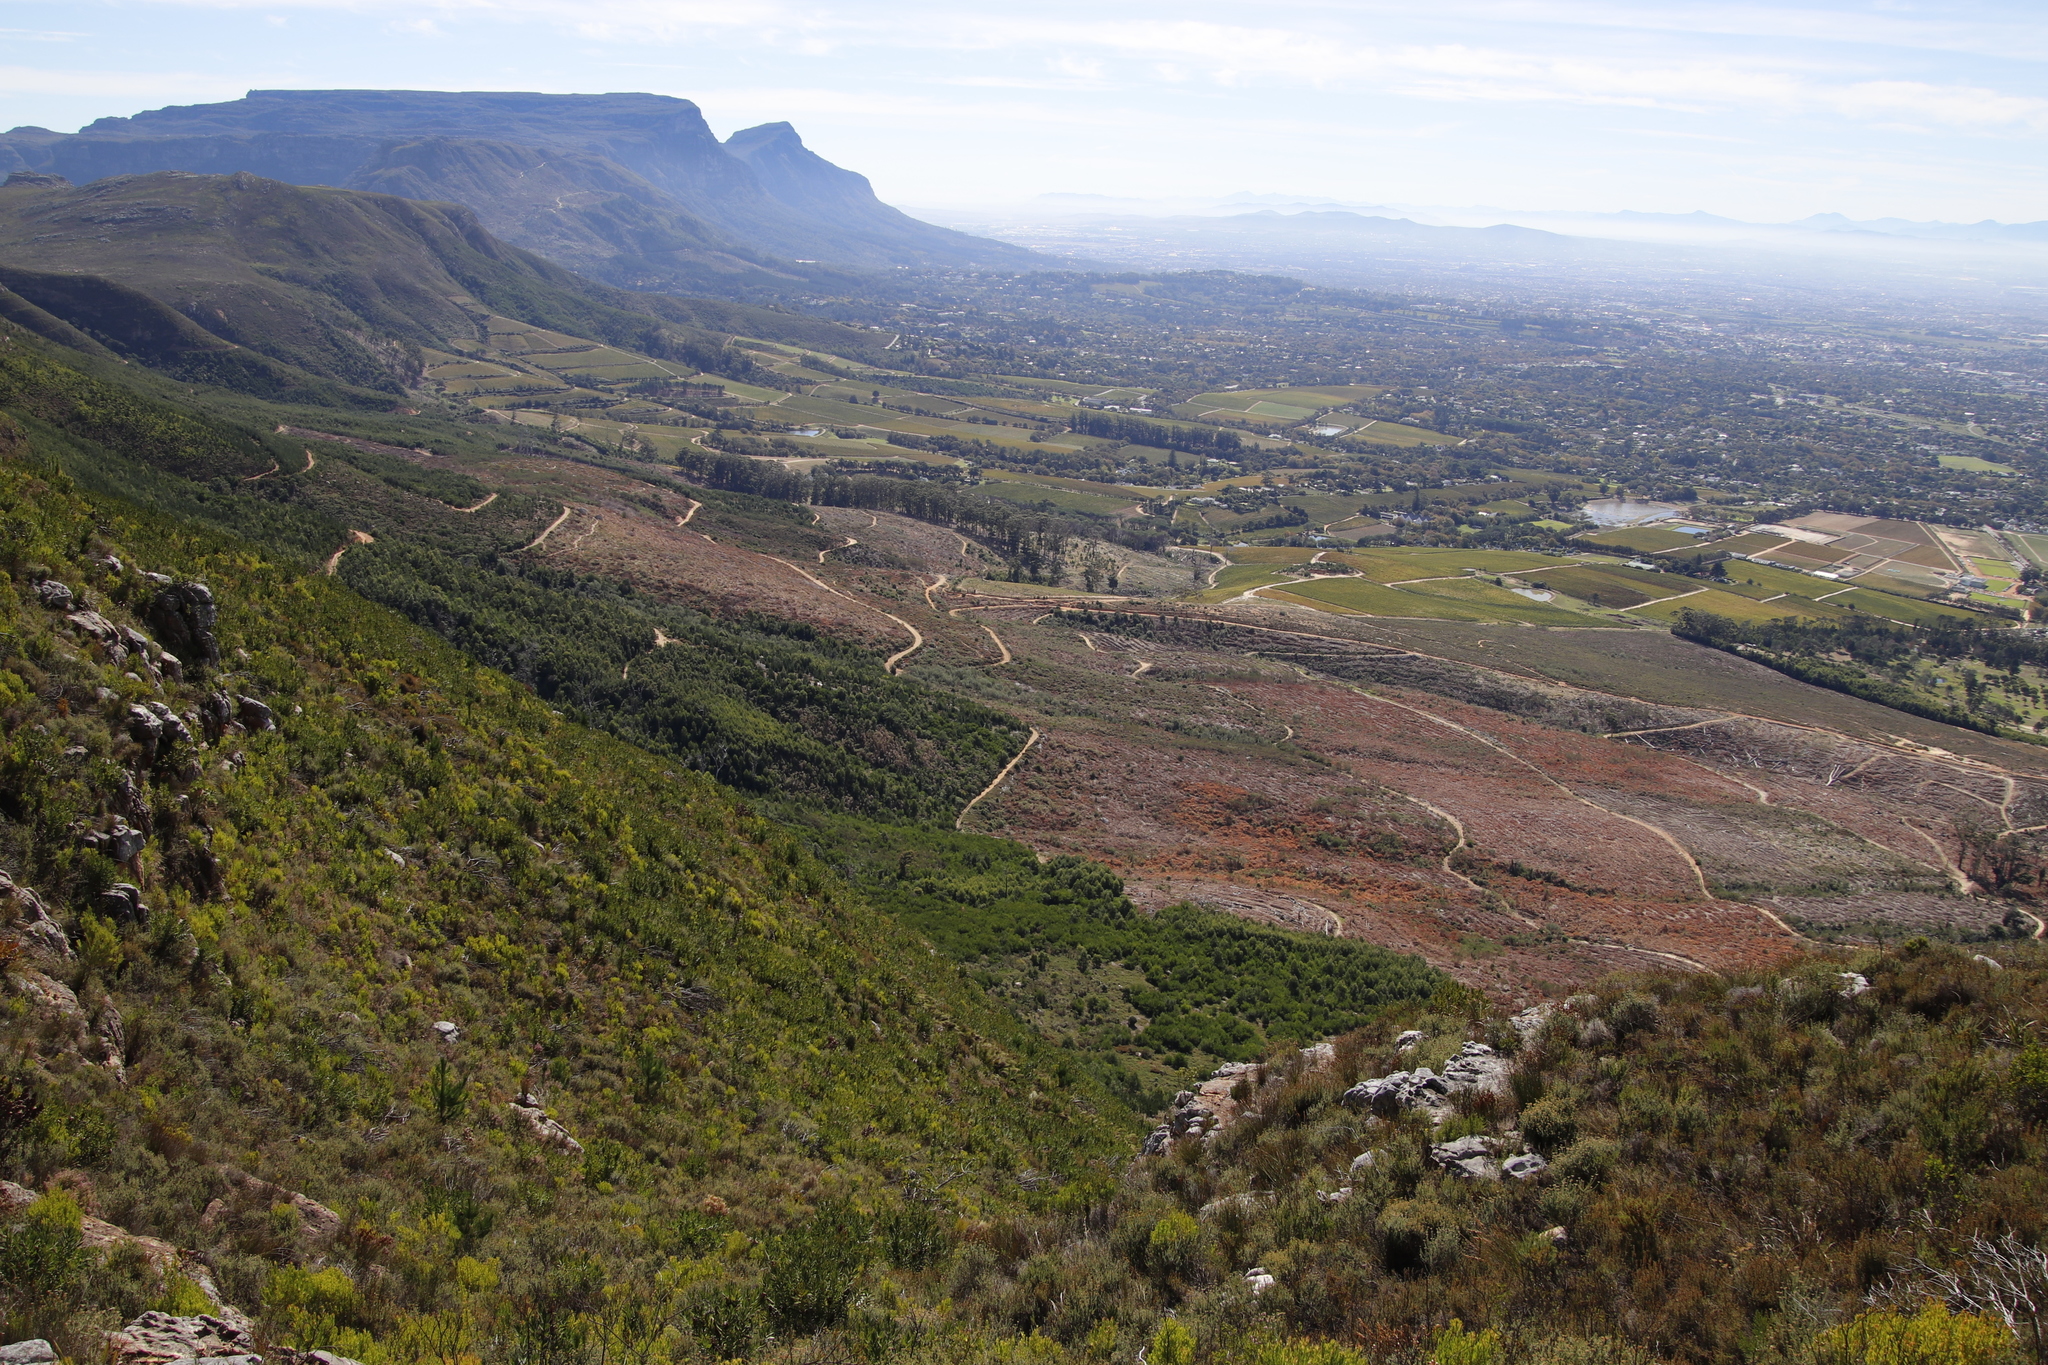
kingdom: Plantae
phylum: Tracheophyta
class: Pinopsida
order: Pinales
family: Pinaceae
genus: Pinus
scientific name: Pinus radiata
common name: Monterey pine
